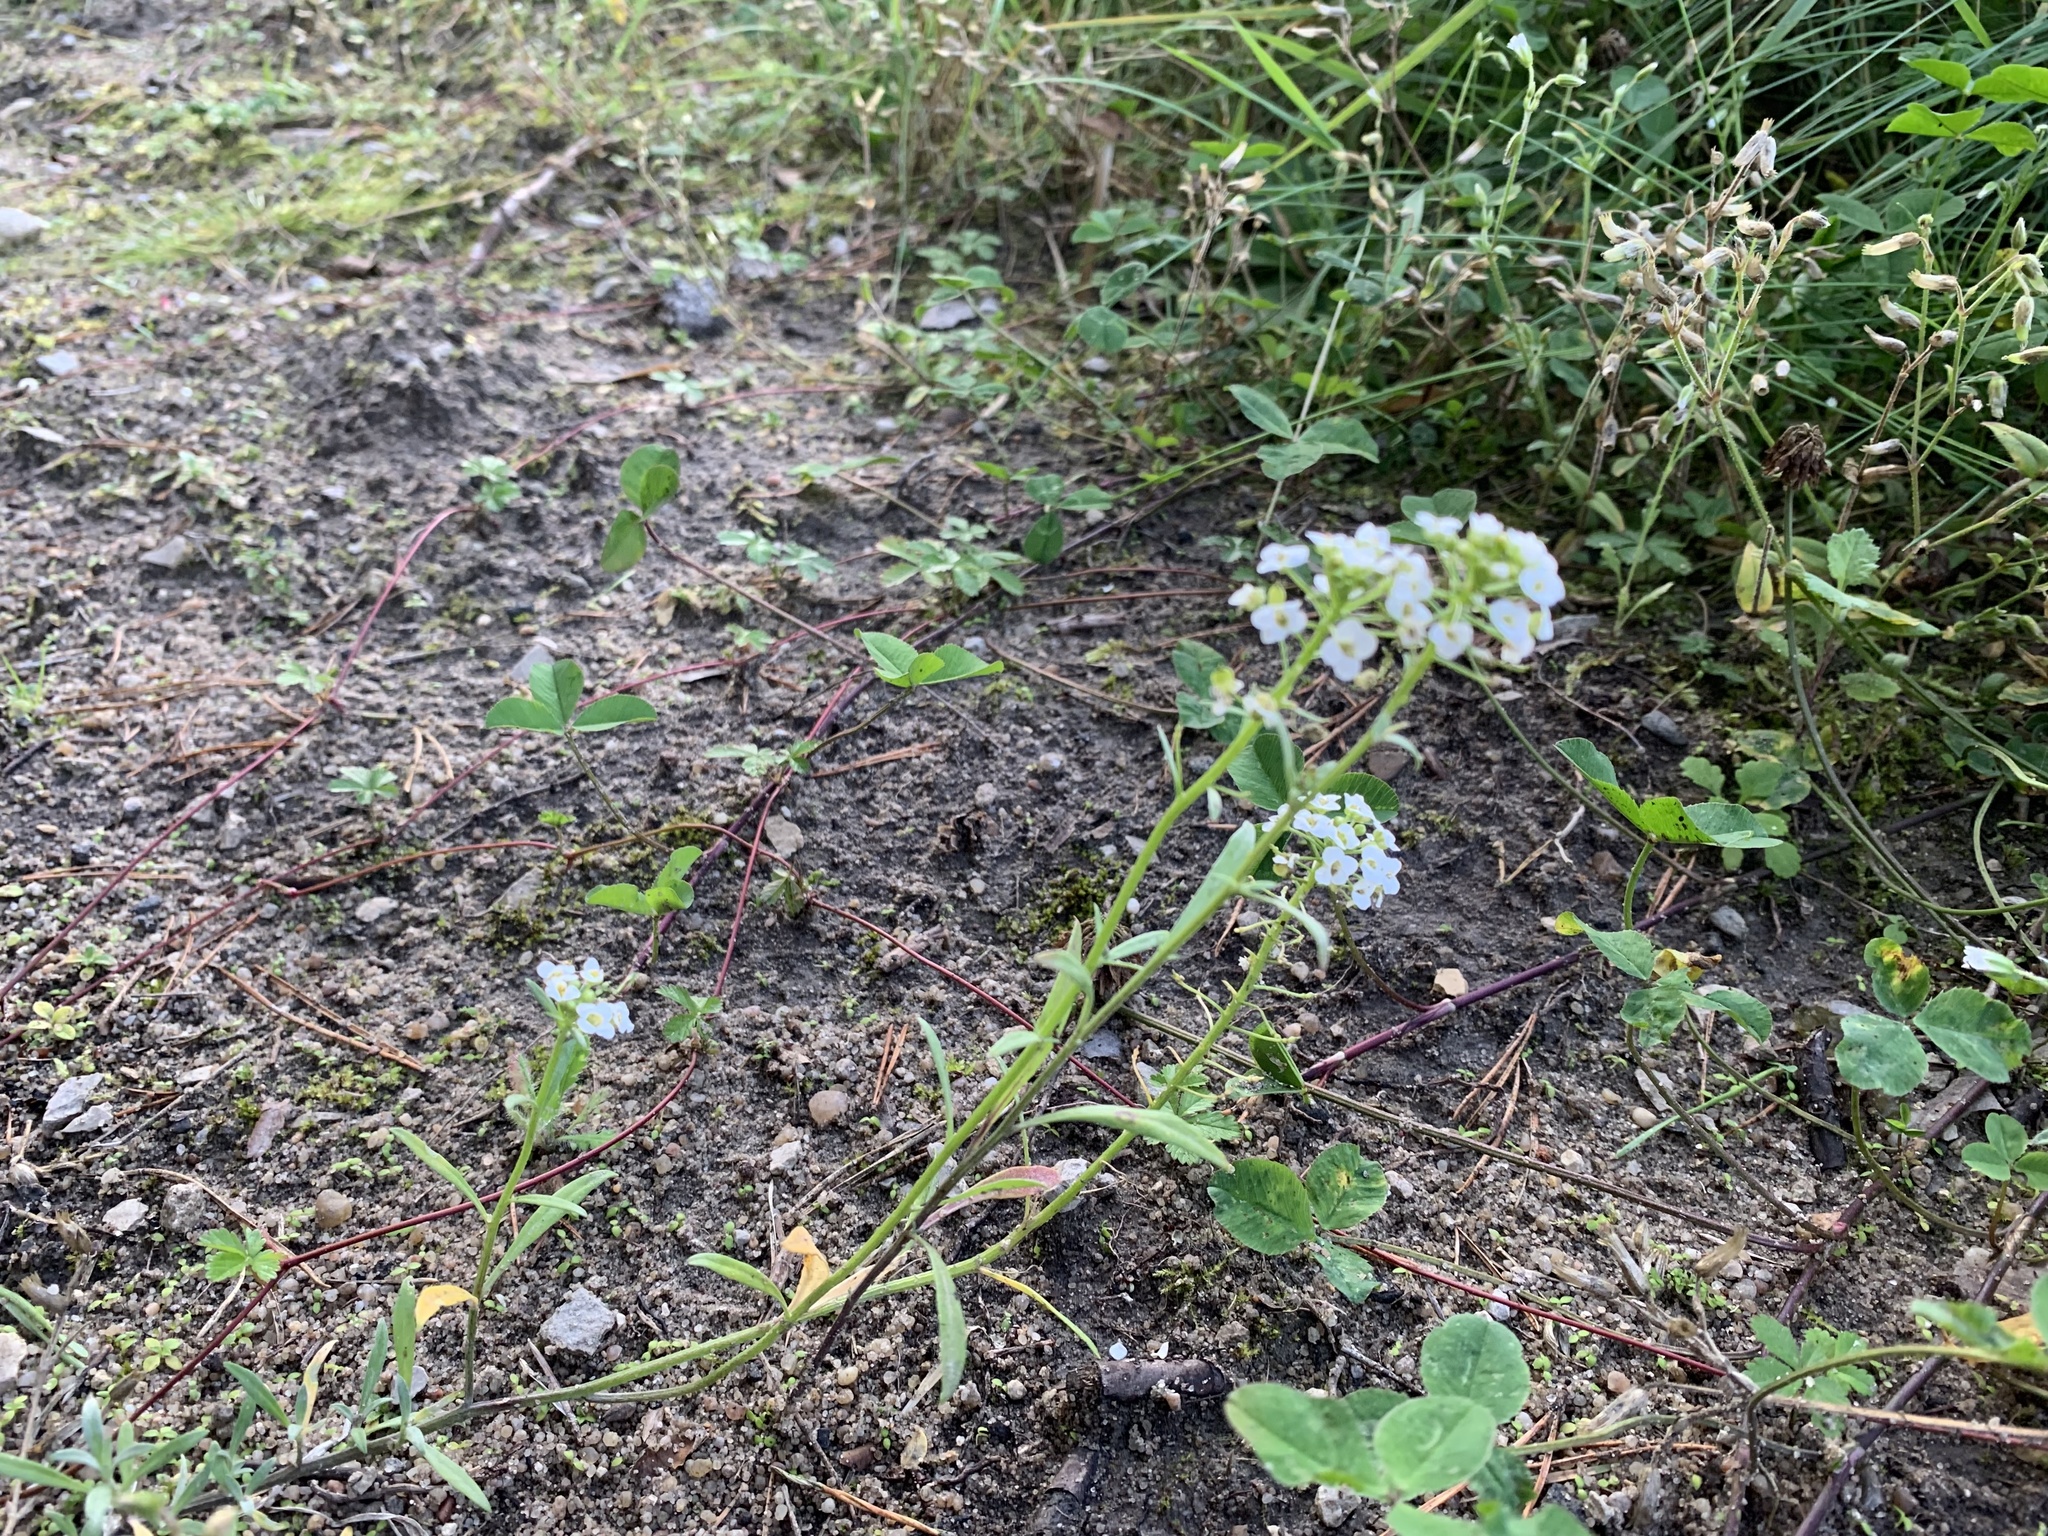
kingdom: Plantae
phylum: Tracheophyta
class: Magnoliopsida
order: Brassicales
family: Brassicaceae
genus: Lobularia
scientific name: Lobularia maritima
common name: Sweet alison
